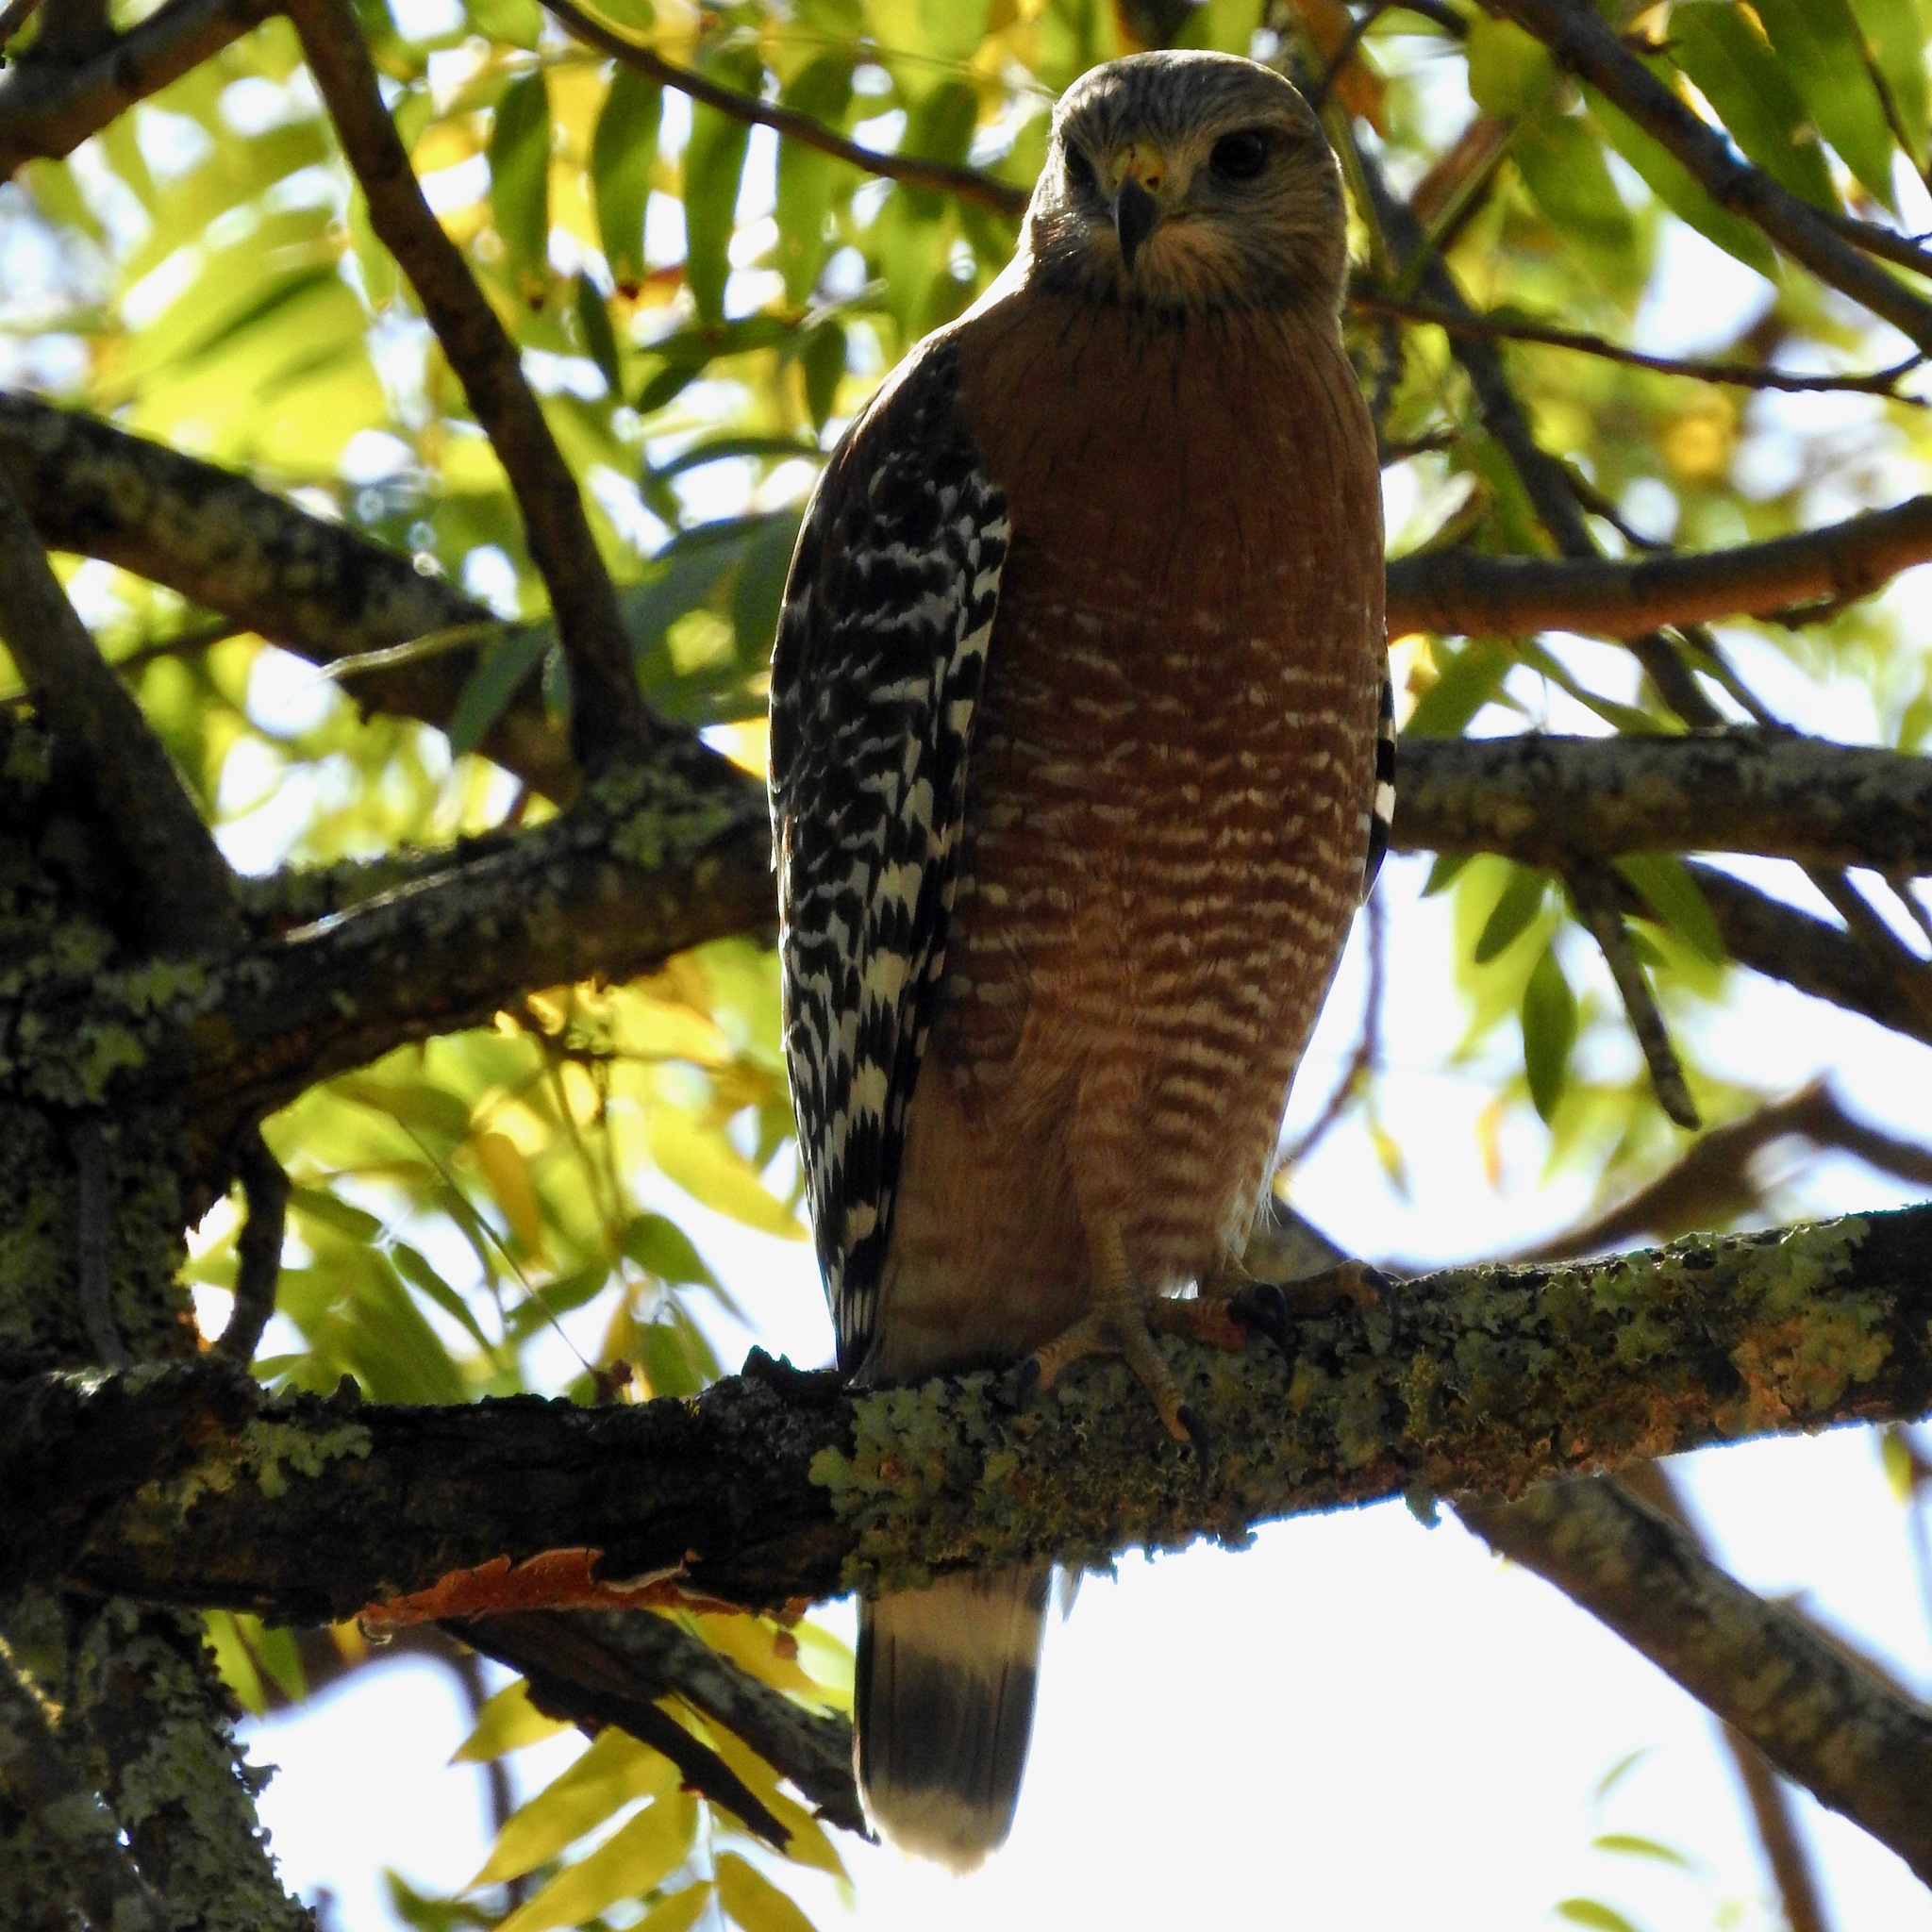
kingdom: Animalia
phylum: Chordata
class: Aves
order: Accipitriformes
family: Accipitridae
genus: Buteo
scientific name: Buteo lineatus
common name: Red-shouldered hawk
